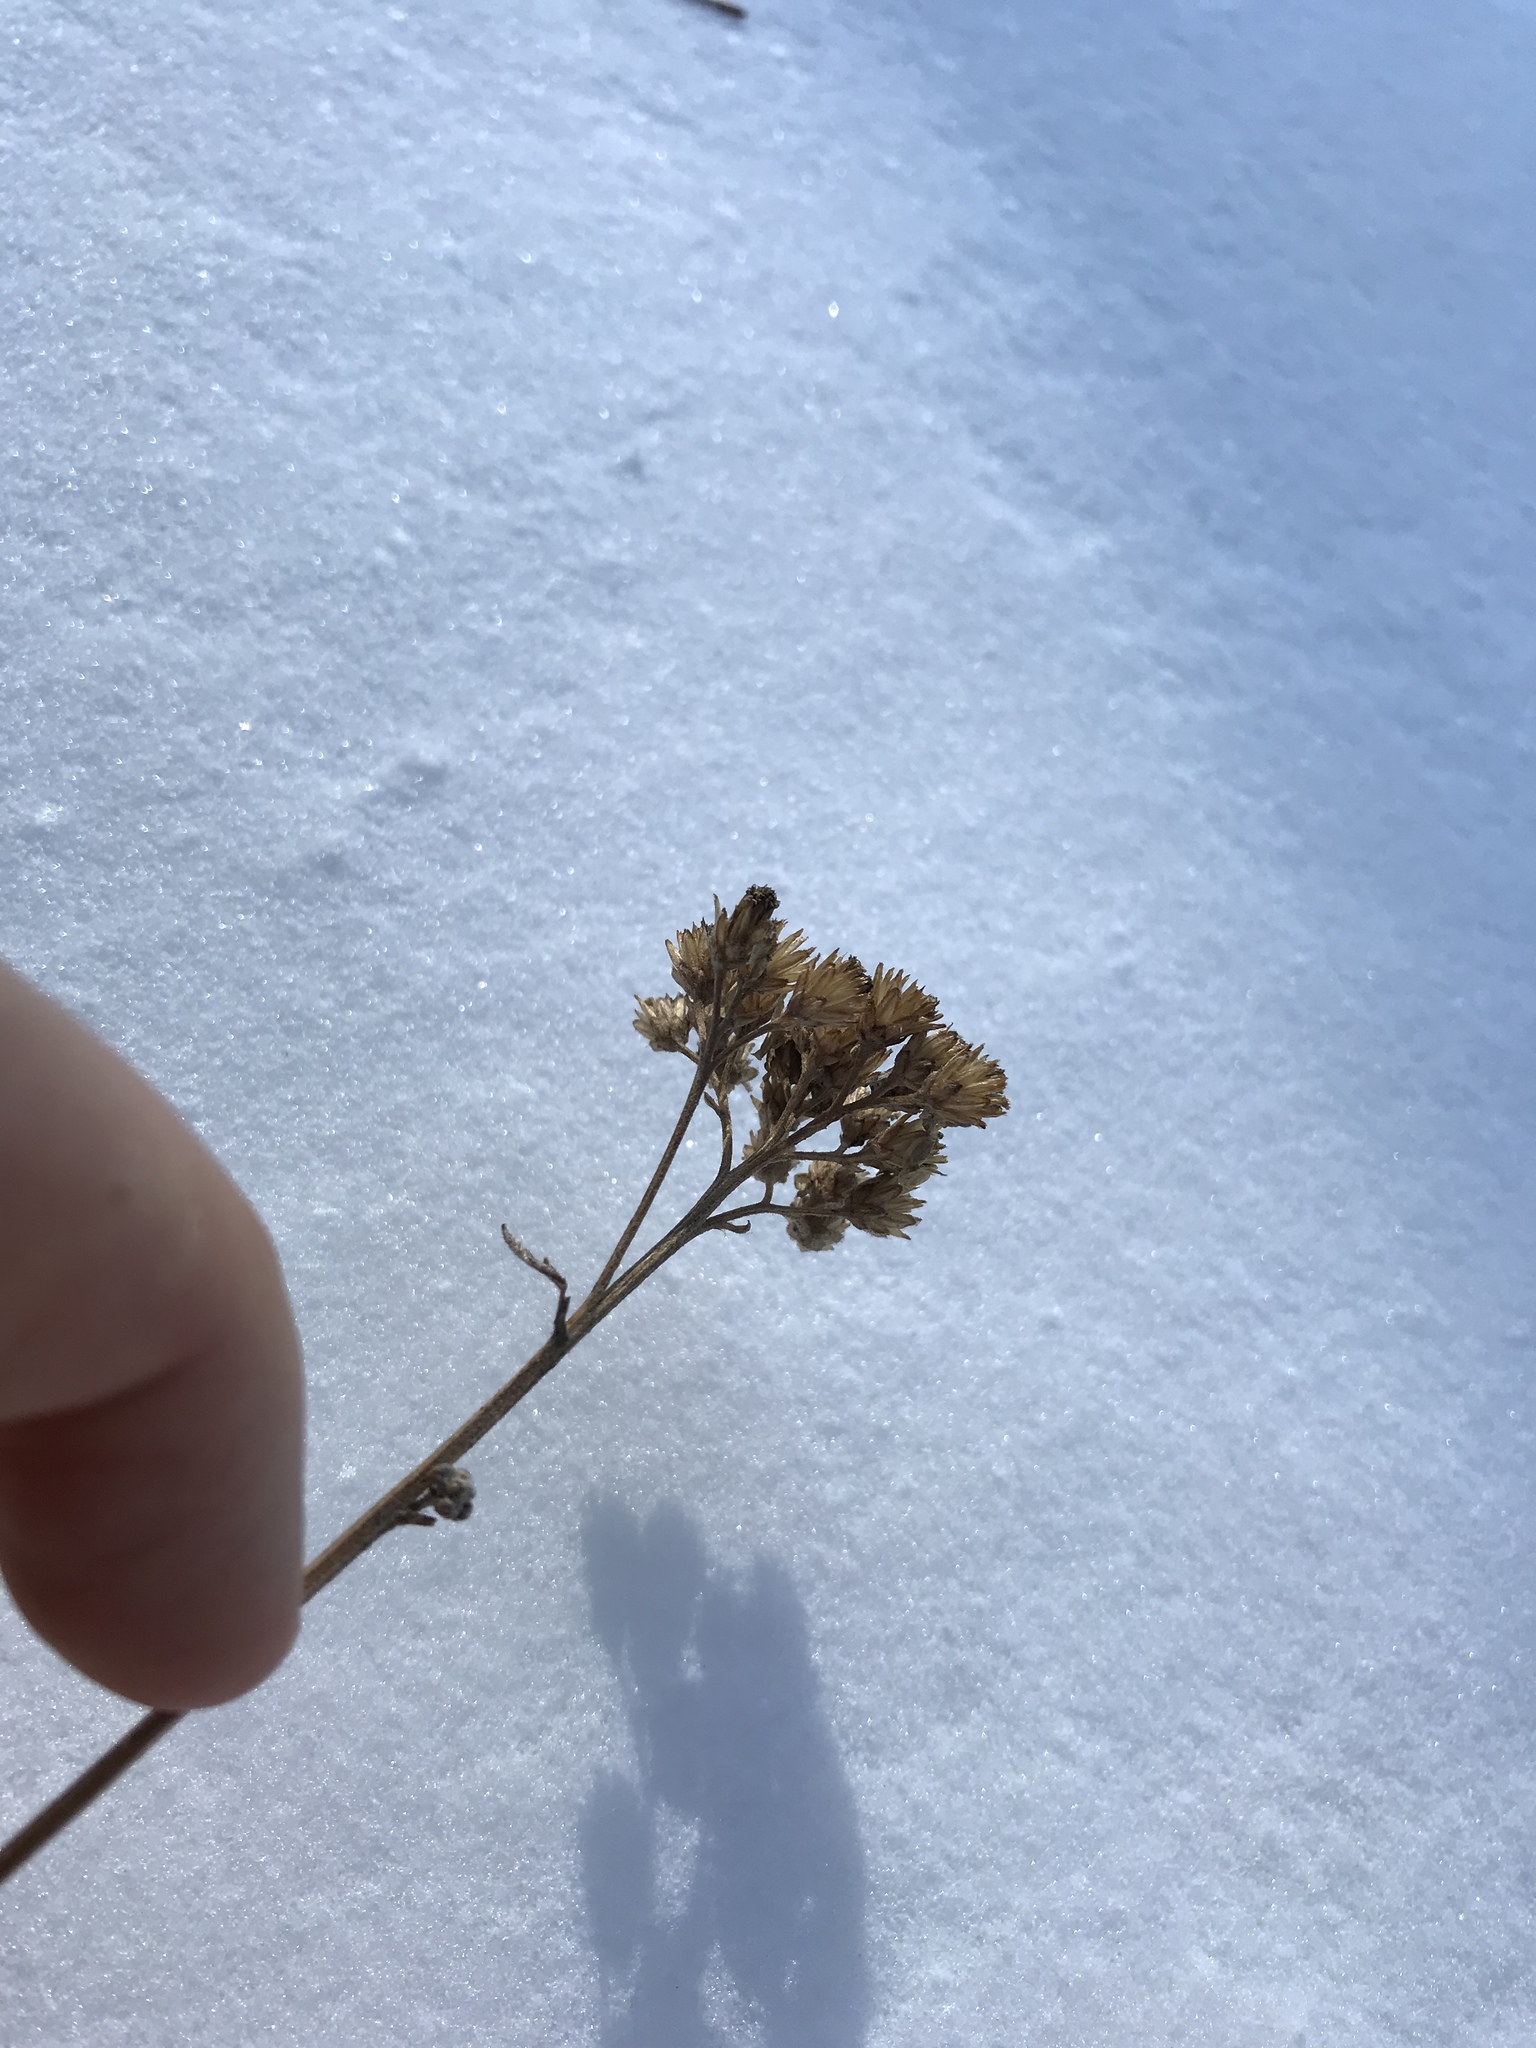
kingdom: Plantae
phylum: Tracheophyta
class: Magnoliopsida
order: Asterales
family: Asteraceae
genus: Achillea
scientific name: Achillea millefolium
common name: Yarrow
